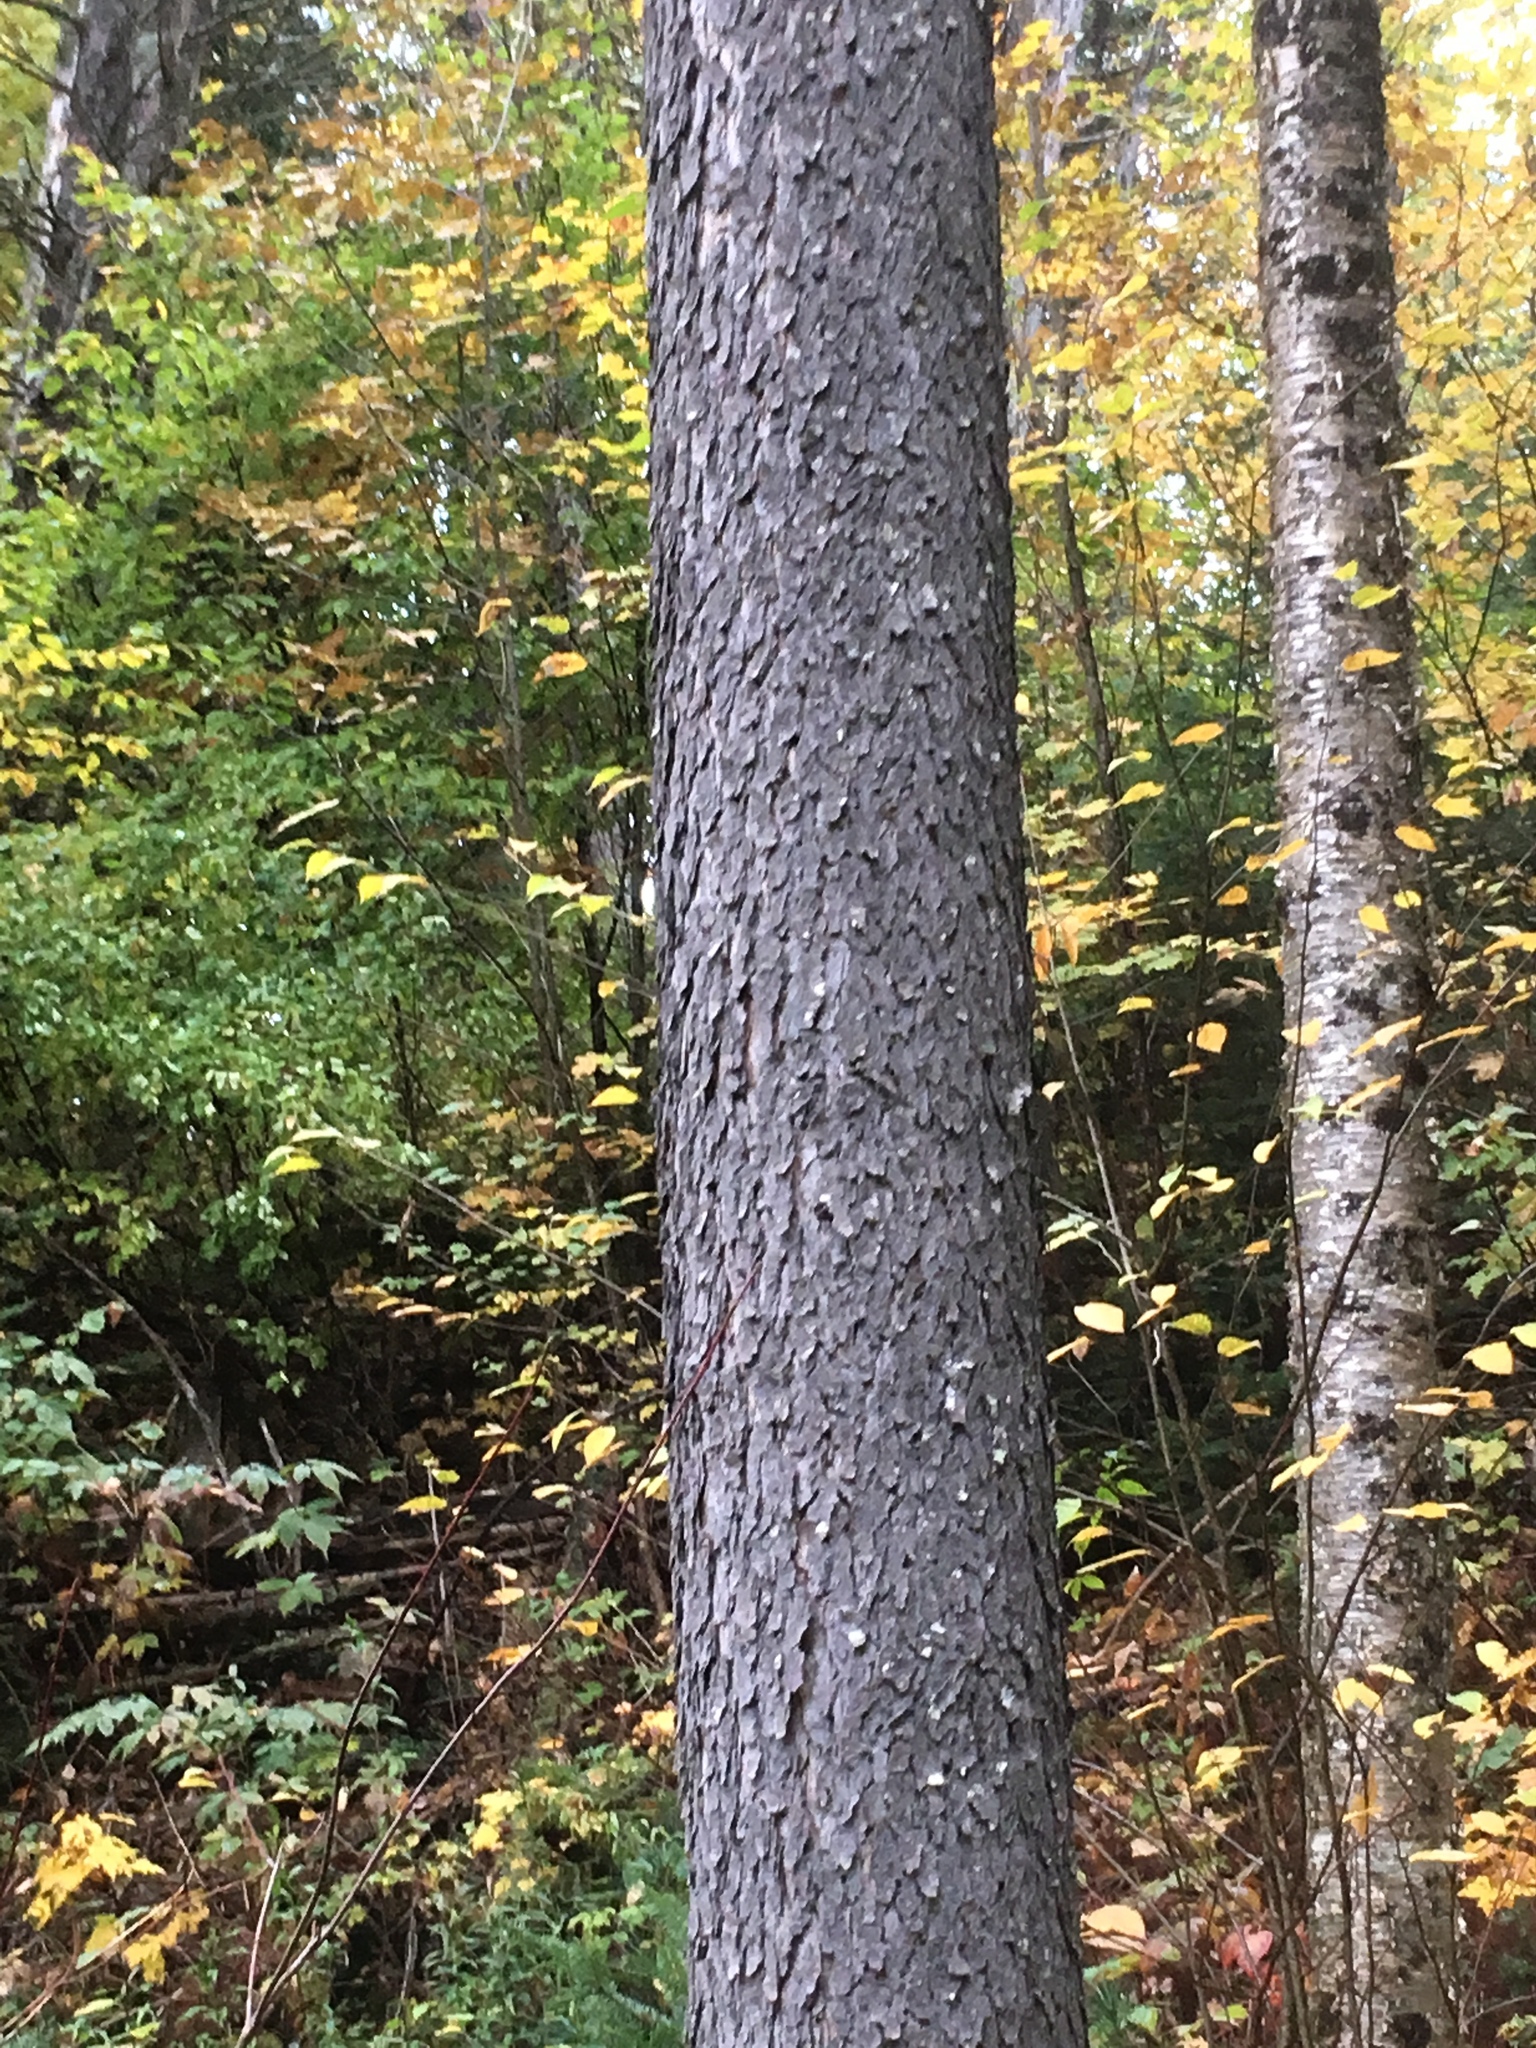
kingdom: Plantae
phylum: Tracheophyta
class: Magnoliopsida
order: Rosales
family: Rosaceae
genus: Prunus
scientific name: Prunus serotina
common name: Black cherry
